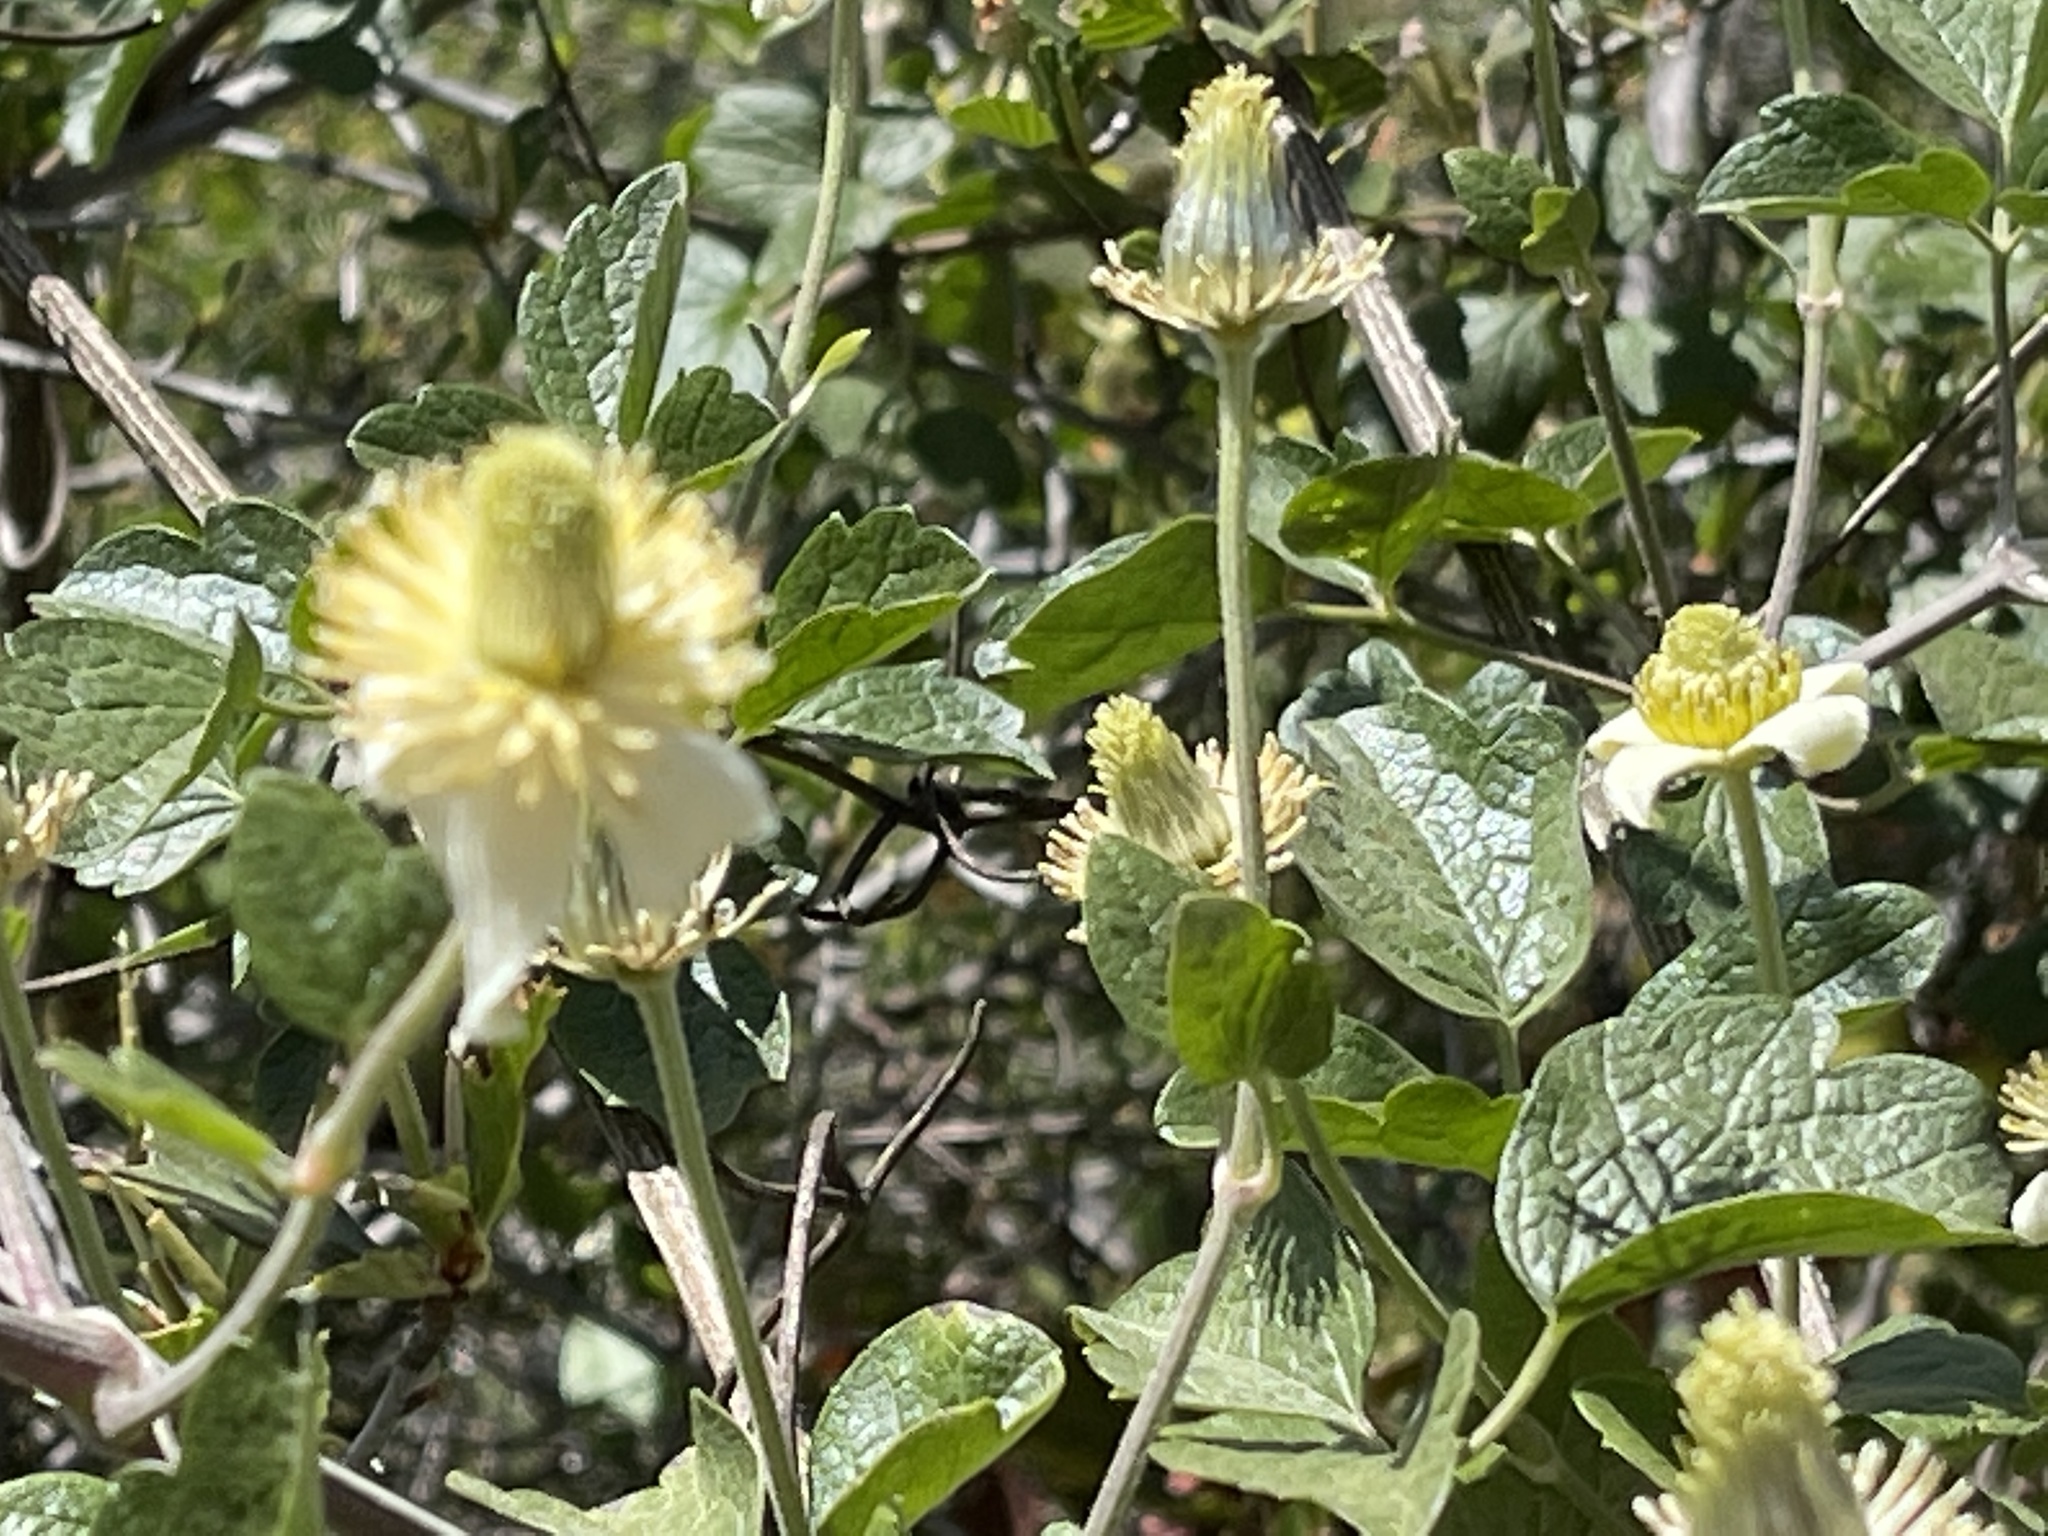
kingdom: Plantae
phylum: Tracheophyta
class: Magnoliopsida
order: Ranunculales
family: Ranunculaceae
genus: Clematis
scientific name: Clematis lasiantha
